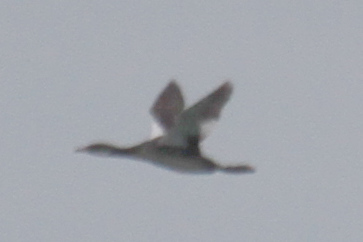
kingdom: Animalia
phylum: Chordata
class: Aves
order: Podicipediformes
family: Podicipedidae
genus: Podiceps
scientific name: Podiceps grisegena
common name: Red-necked grebe
